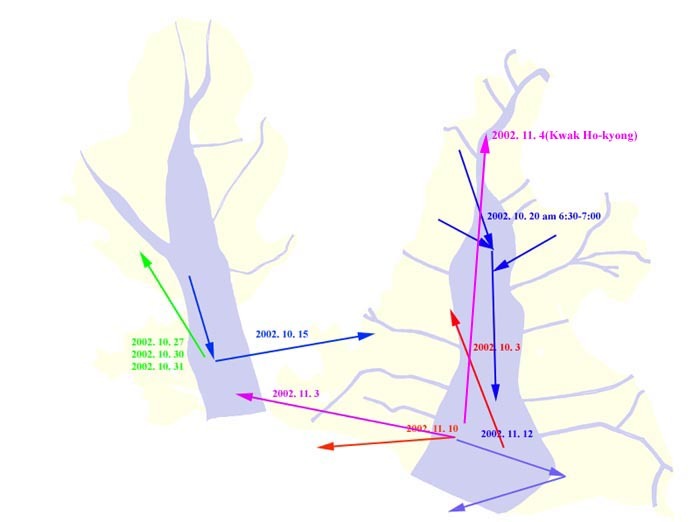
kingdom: Animalia
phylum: Chordata
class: Aves
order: Anseriformes
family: Anatidae
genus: Sibirionetta
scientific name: Sibirionetta formosa
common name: Baikal teal
